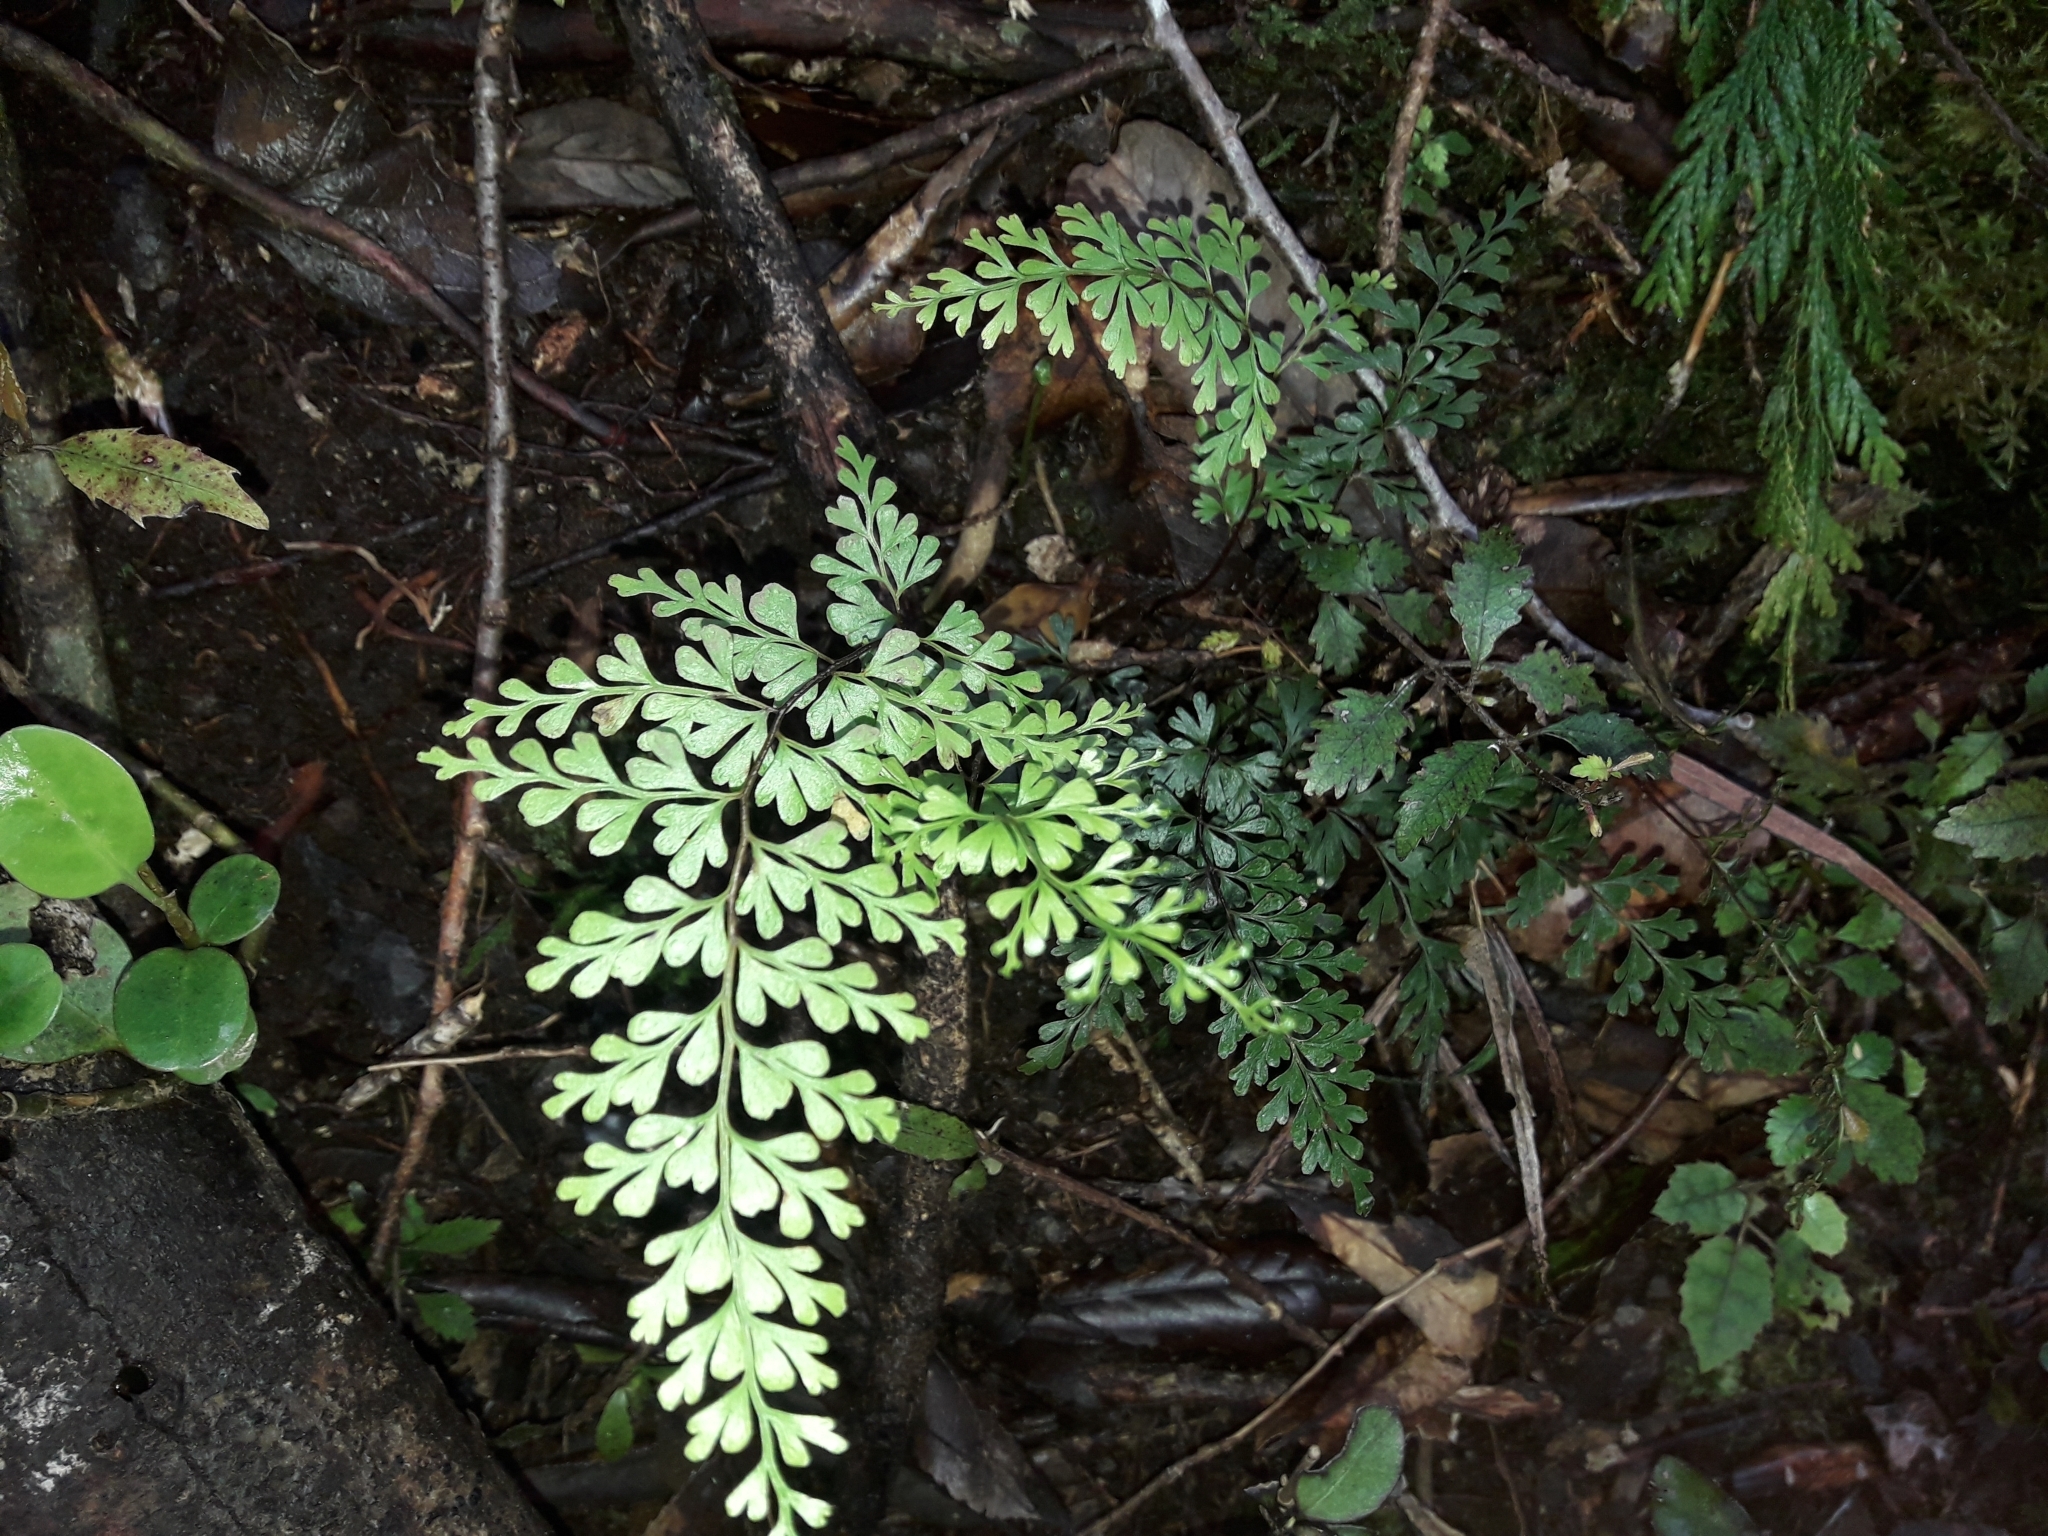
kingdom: Plantae
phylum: Tracheophyta
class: Polypodiopsida
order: Polypodiales
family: Lindsaeaceae
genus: Lindsaea
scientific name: Lindsaea trichomanoides
